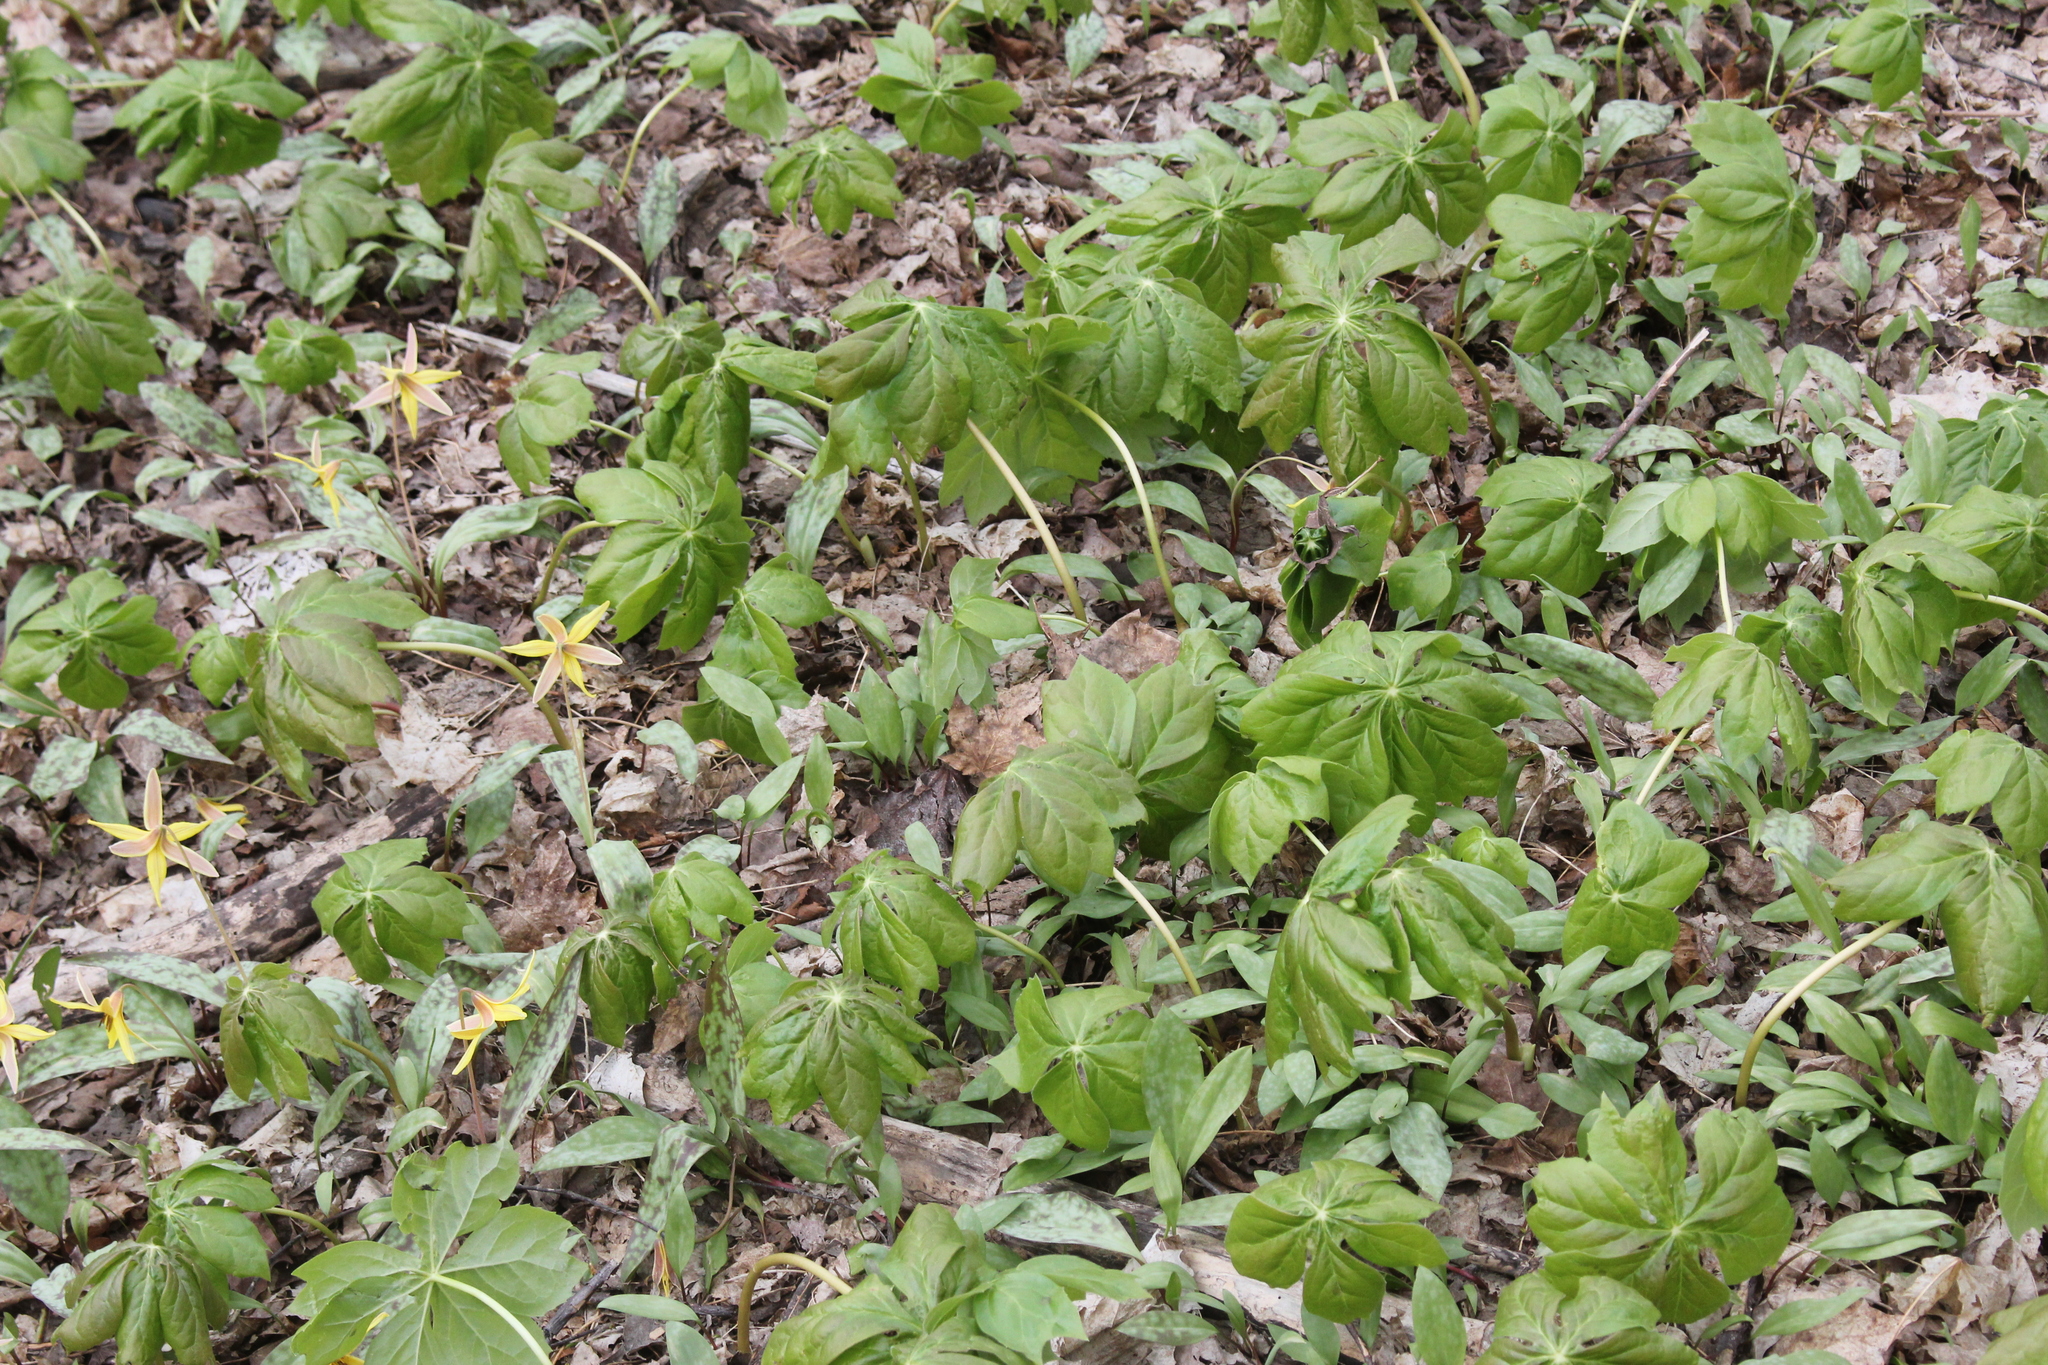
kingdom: Plantae
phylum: Tracheophyta
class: Magnoliopsida
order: Ranunculales
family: Berberidaceae
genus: Podophyllum
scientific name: Podophyllum peltatum
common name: Wild mandrake
